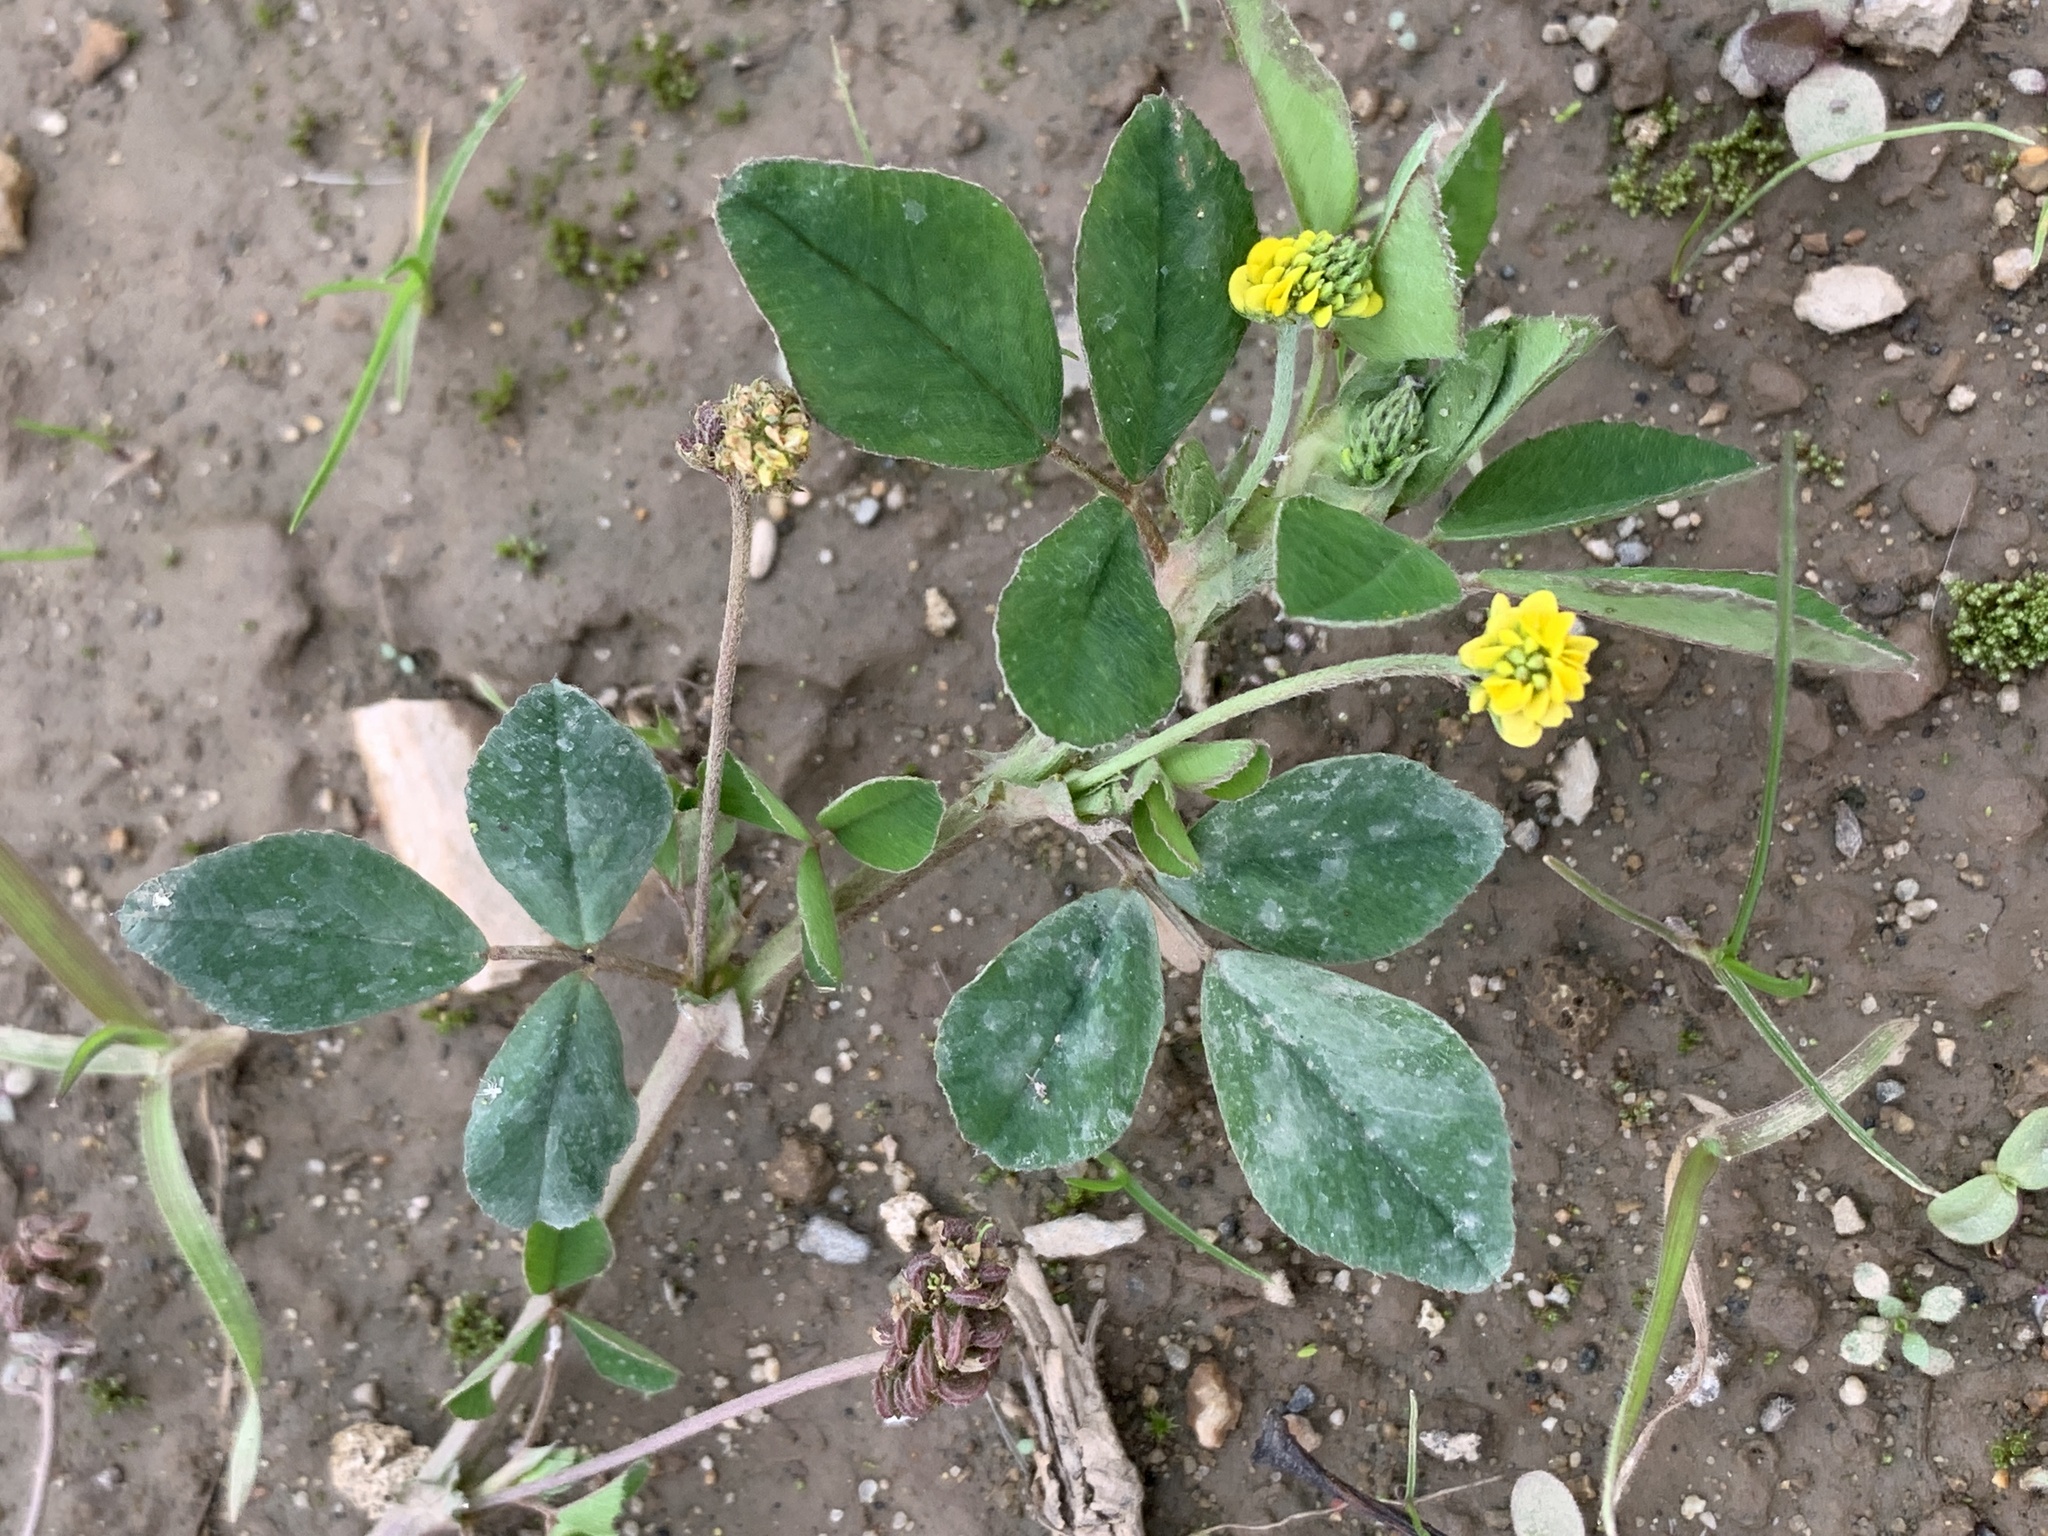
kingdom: Plantae
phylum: Tracheophyta
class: Magnoliopsida
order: Fabales
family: Fabaceae
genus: Medicago
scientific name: Medicago lupulina
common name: Black medick
